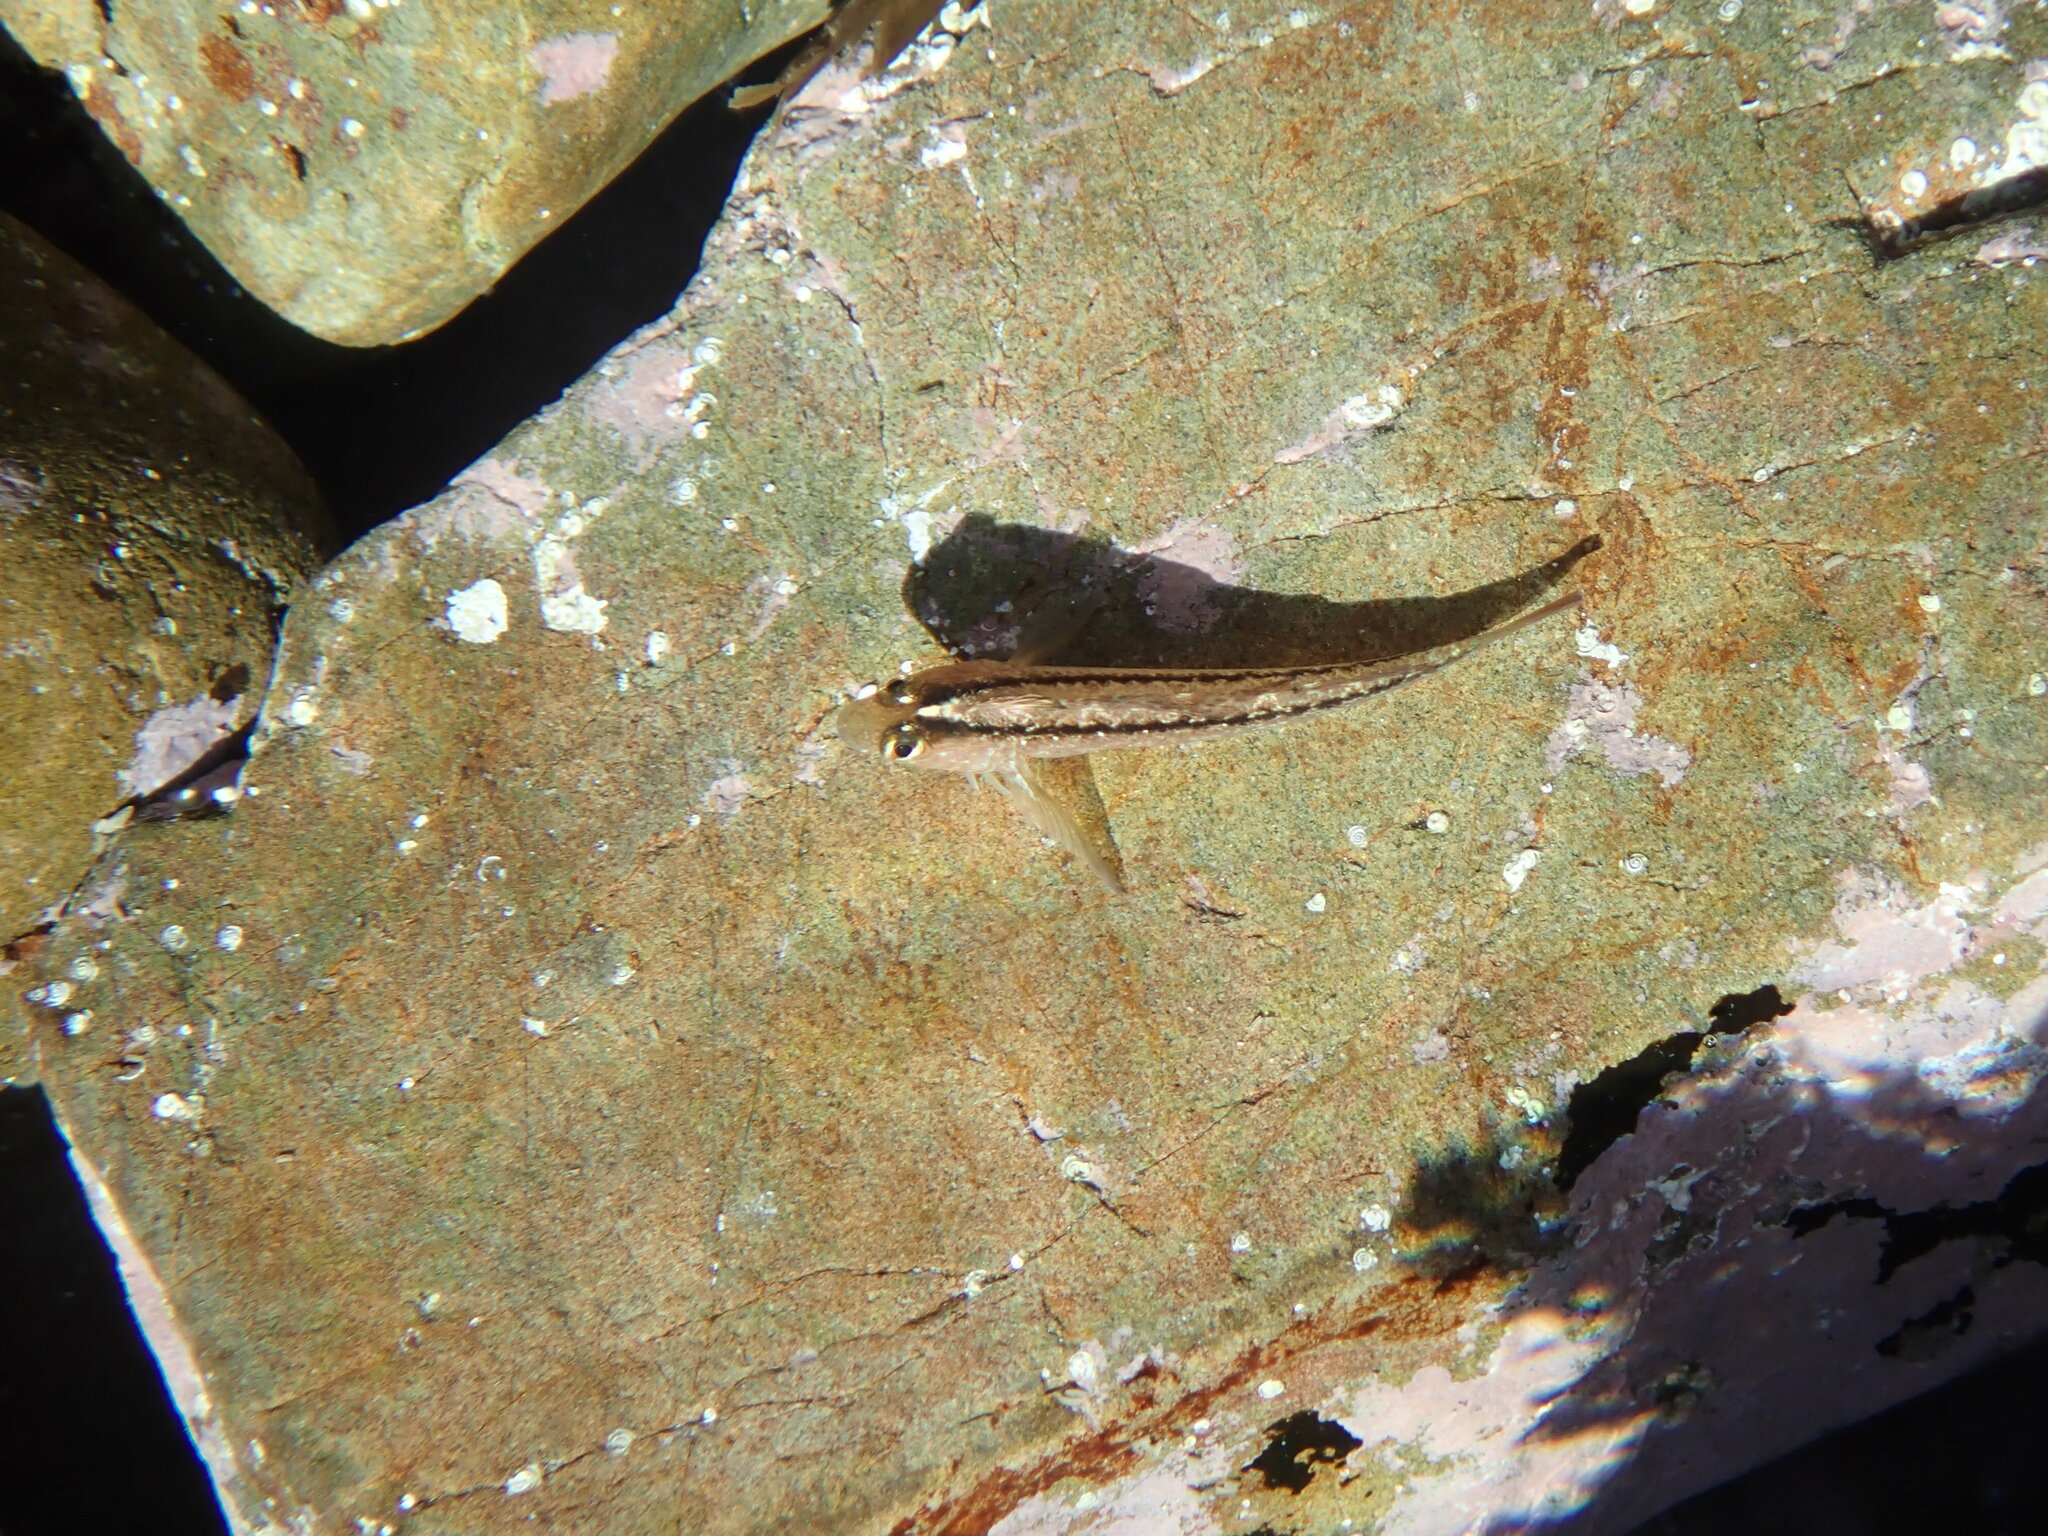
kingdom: Animalia
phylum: Chordata
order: Perciformes
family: Tripterygiidae
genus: Forsterygion
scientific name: Forsterygion lapillum
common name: Common triplefin
